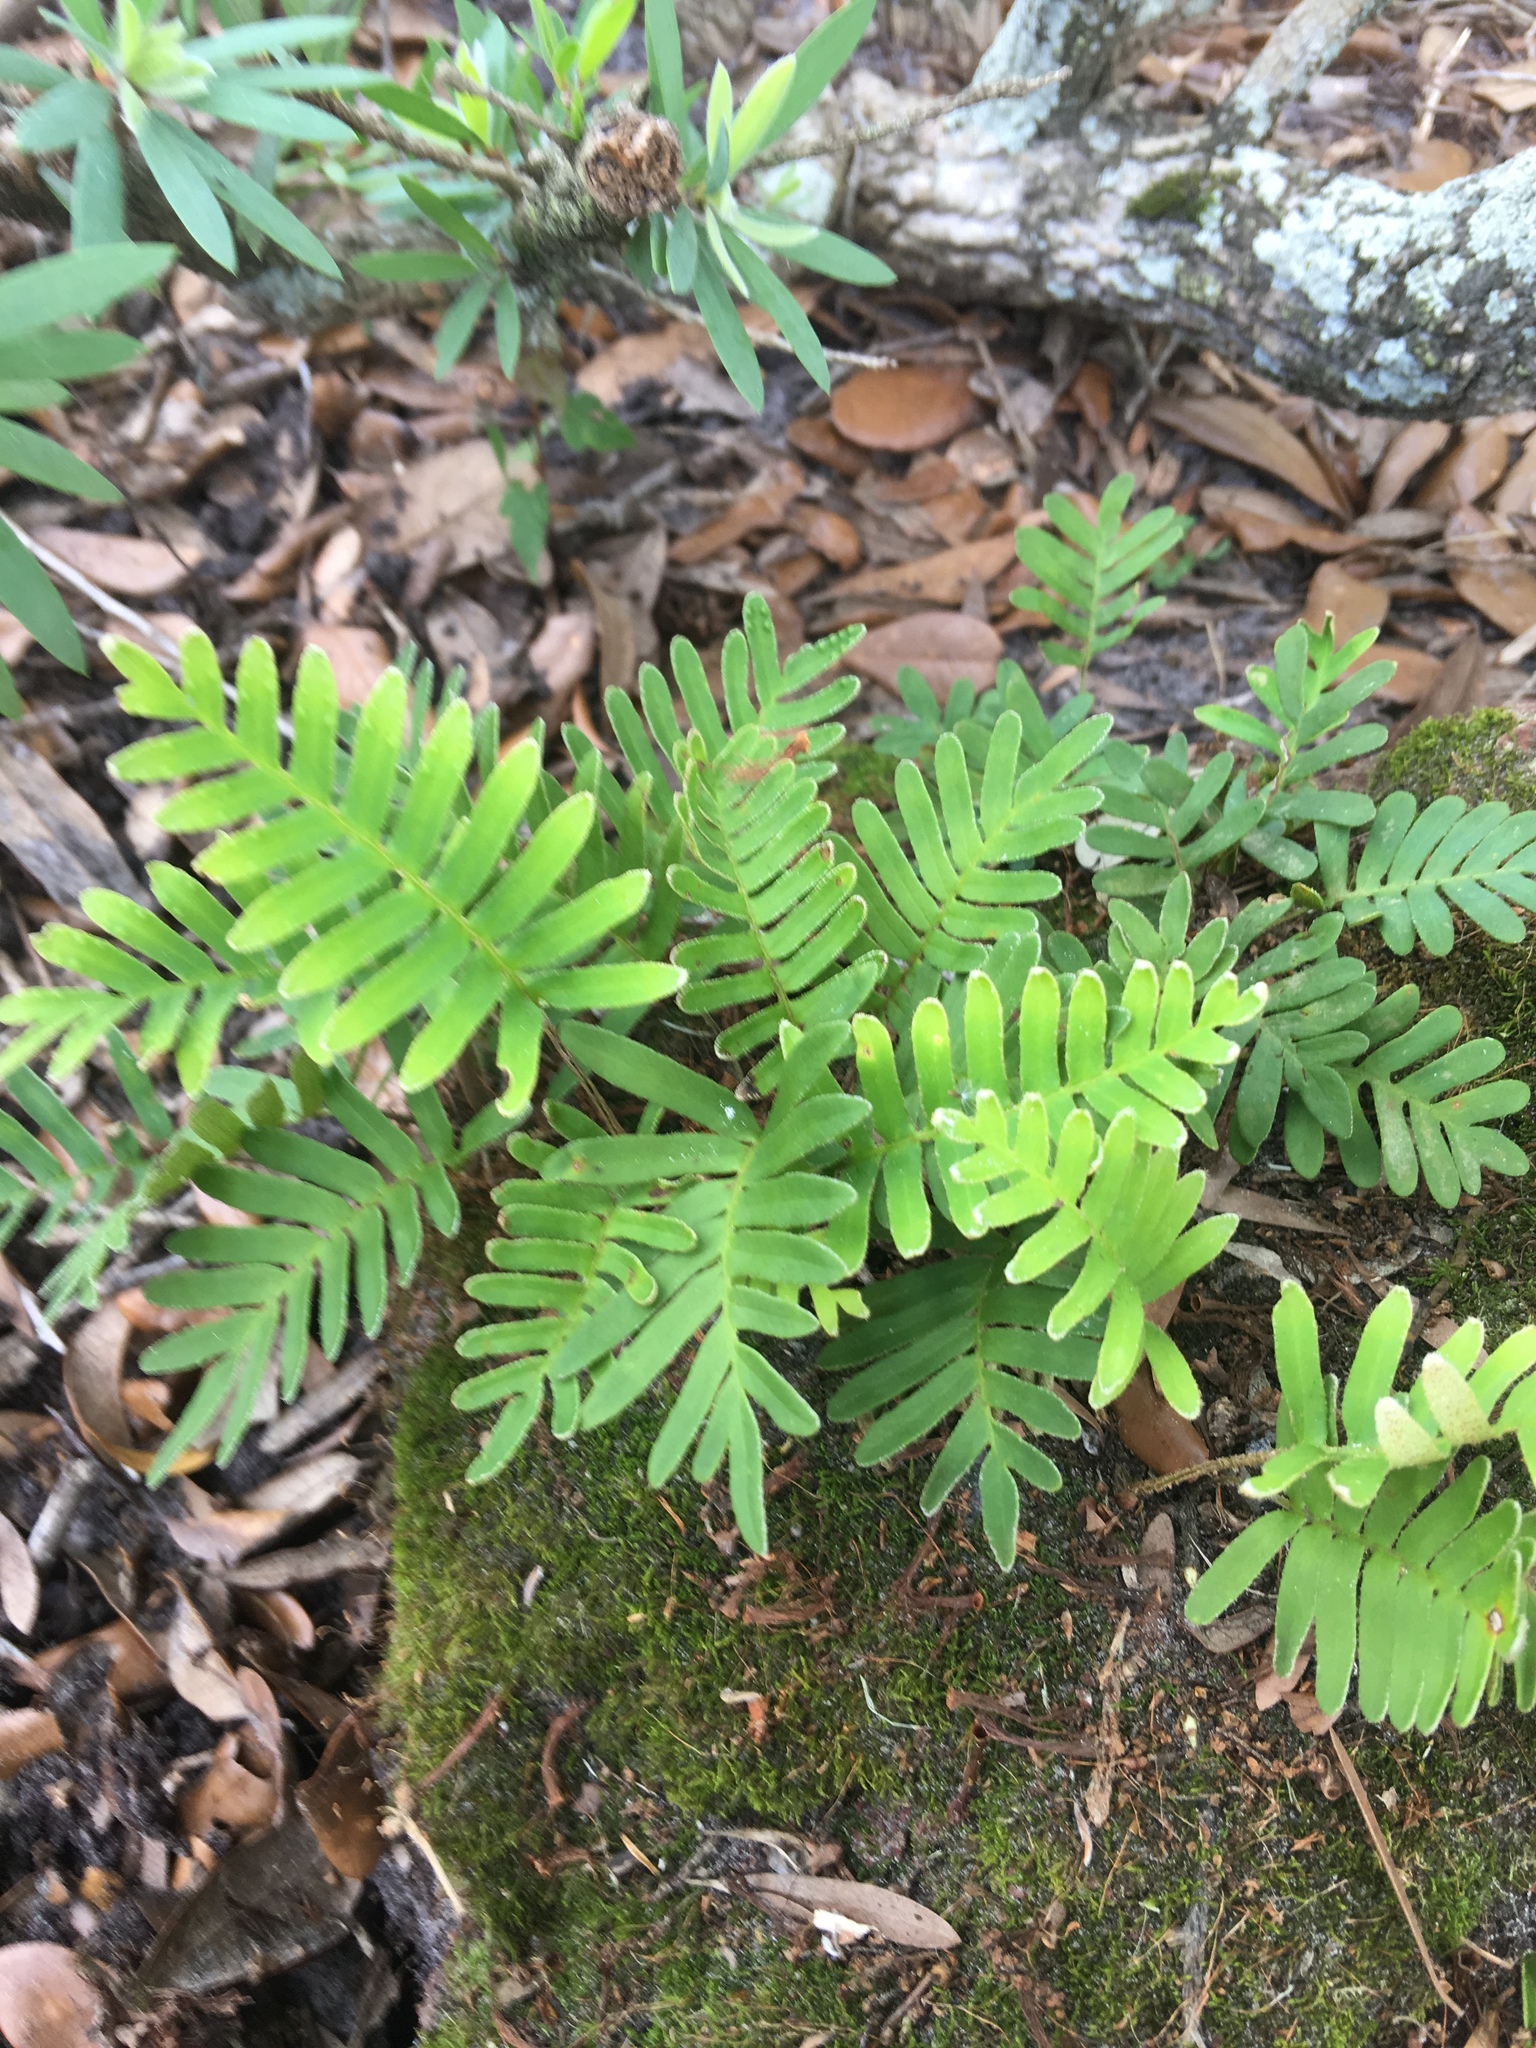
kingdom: Plantae
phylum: Tracheophyta
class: Polypodiopsida
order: Polypodiales
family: Polypodiaceae
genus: Pleopeltis
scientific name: Pleopeltis michauxiana
